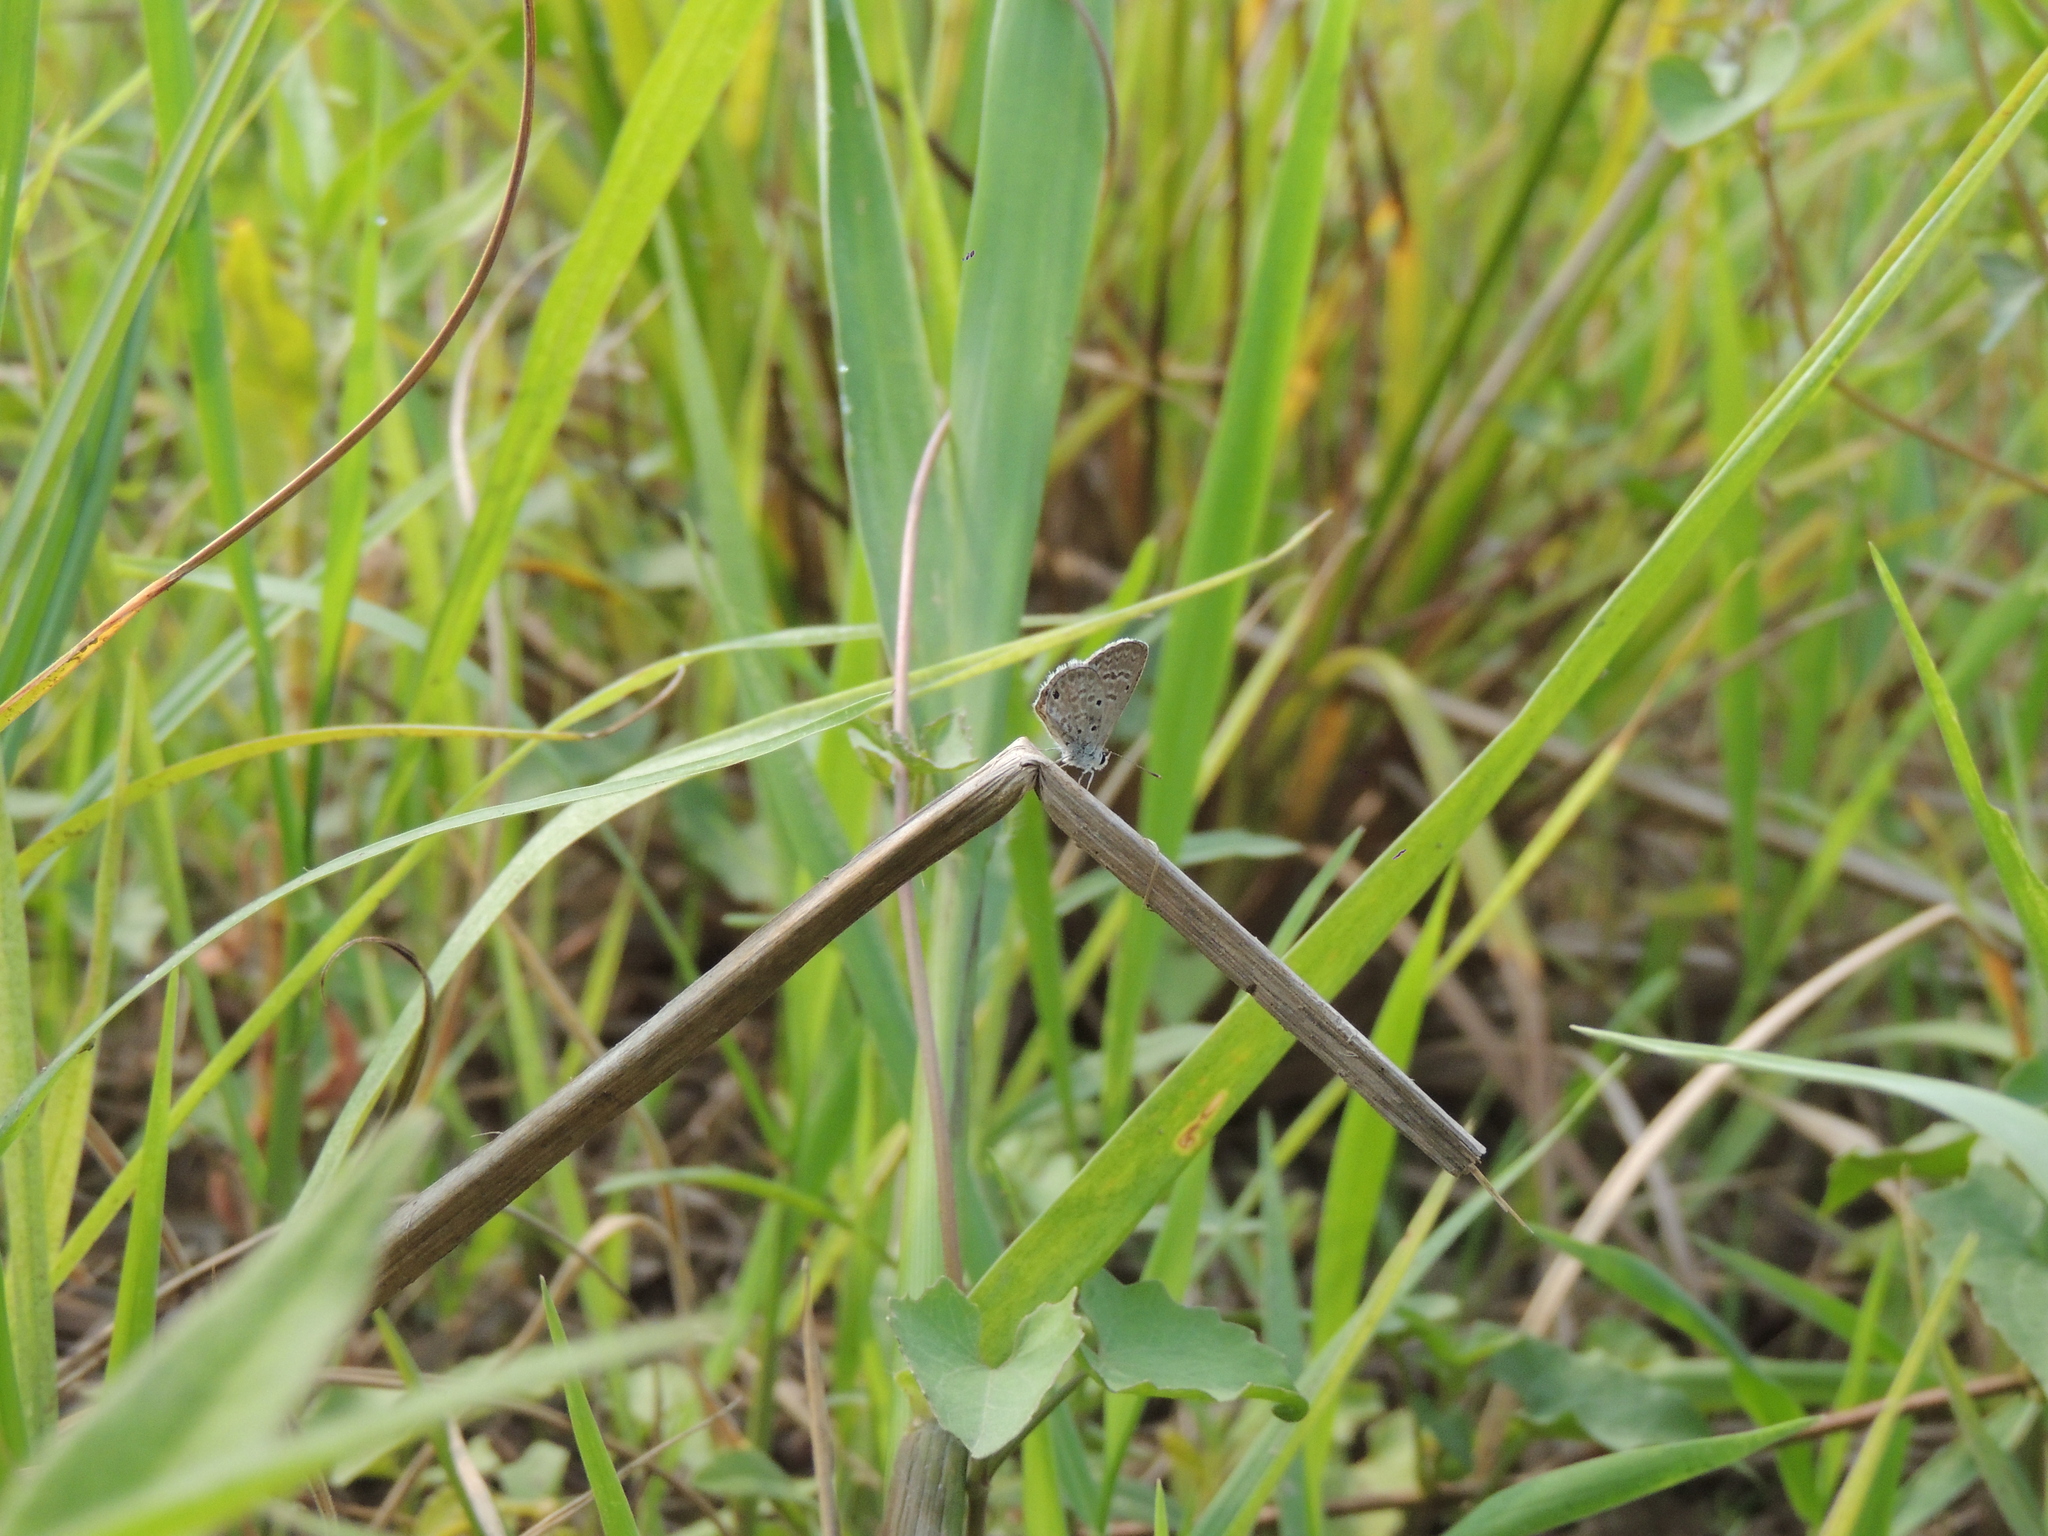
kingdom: Animalia
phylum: Arthropoda
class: Insecta
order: Lepidoptera
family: Lycaenidae
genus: Hemiargus
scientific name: Hemiargus hanno
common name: Common blue
